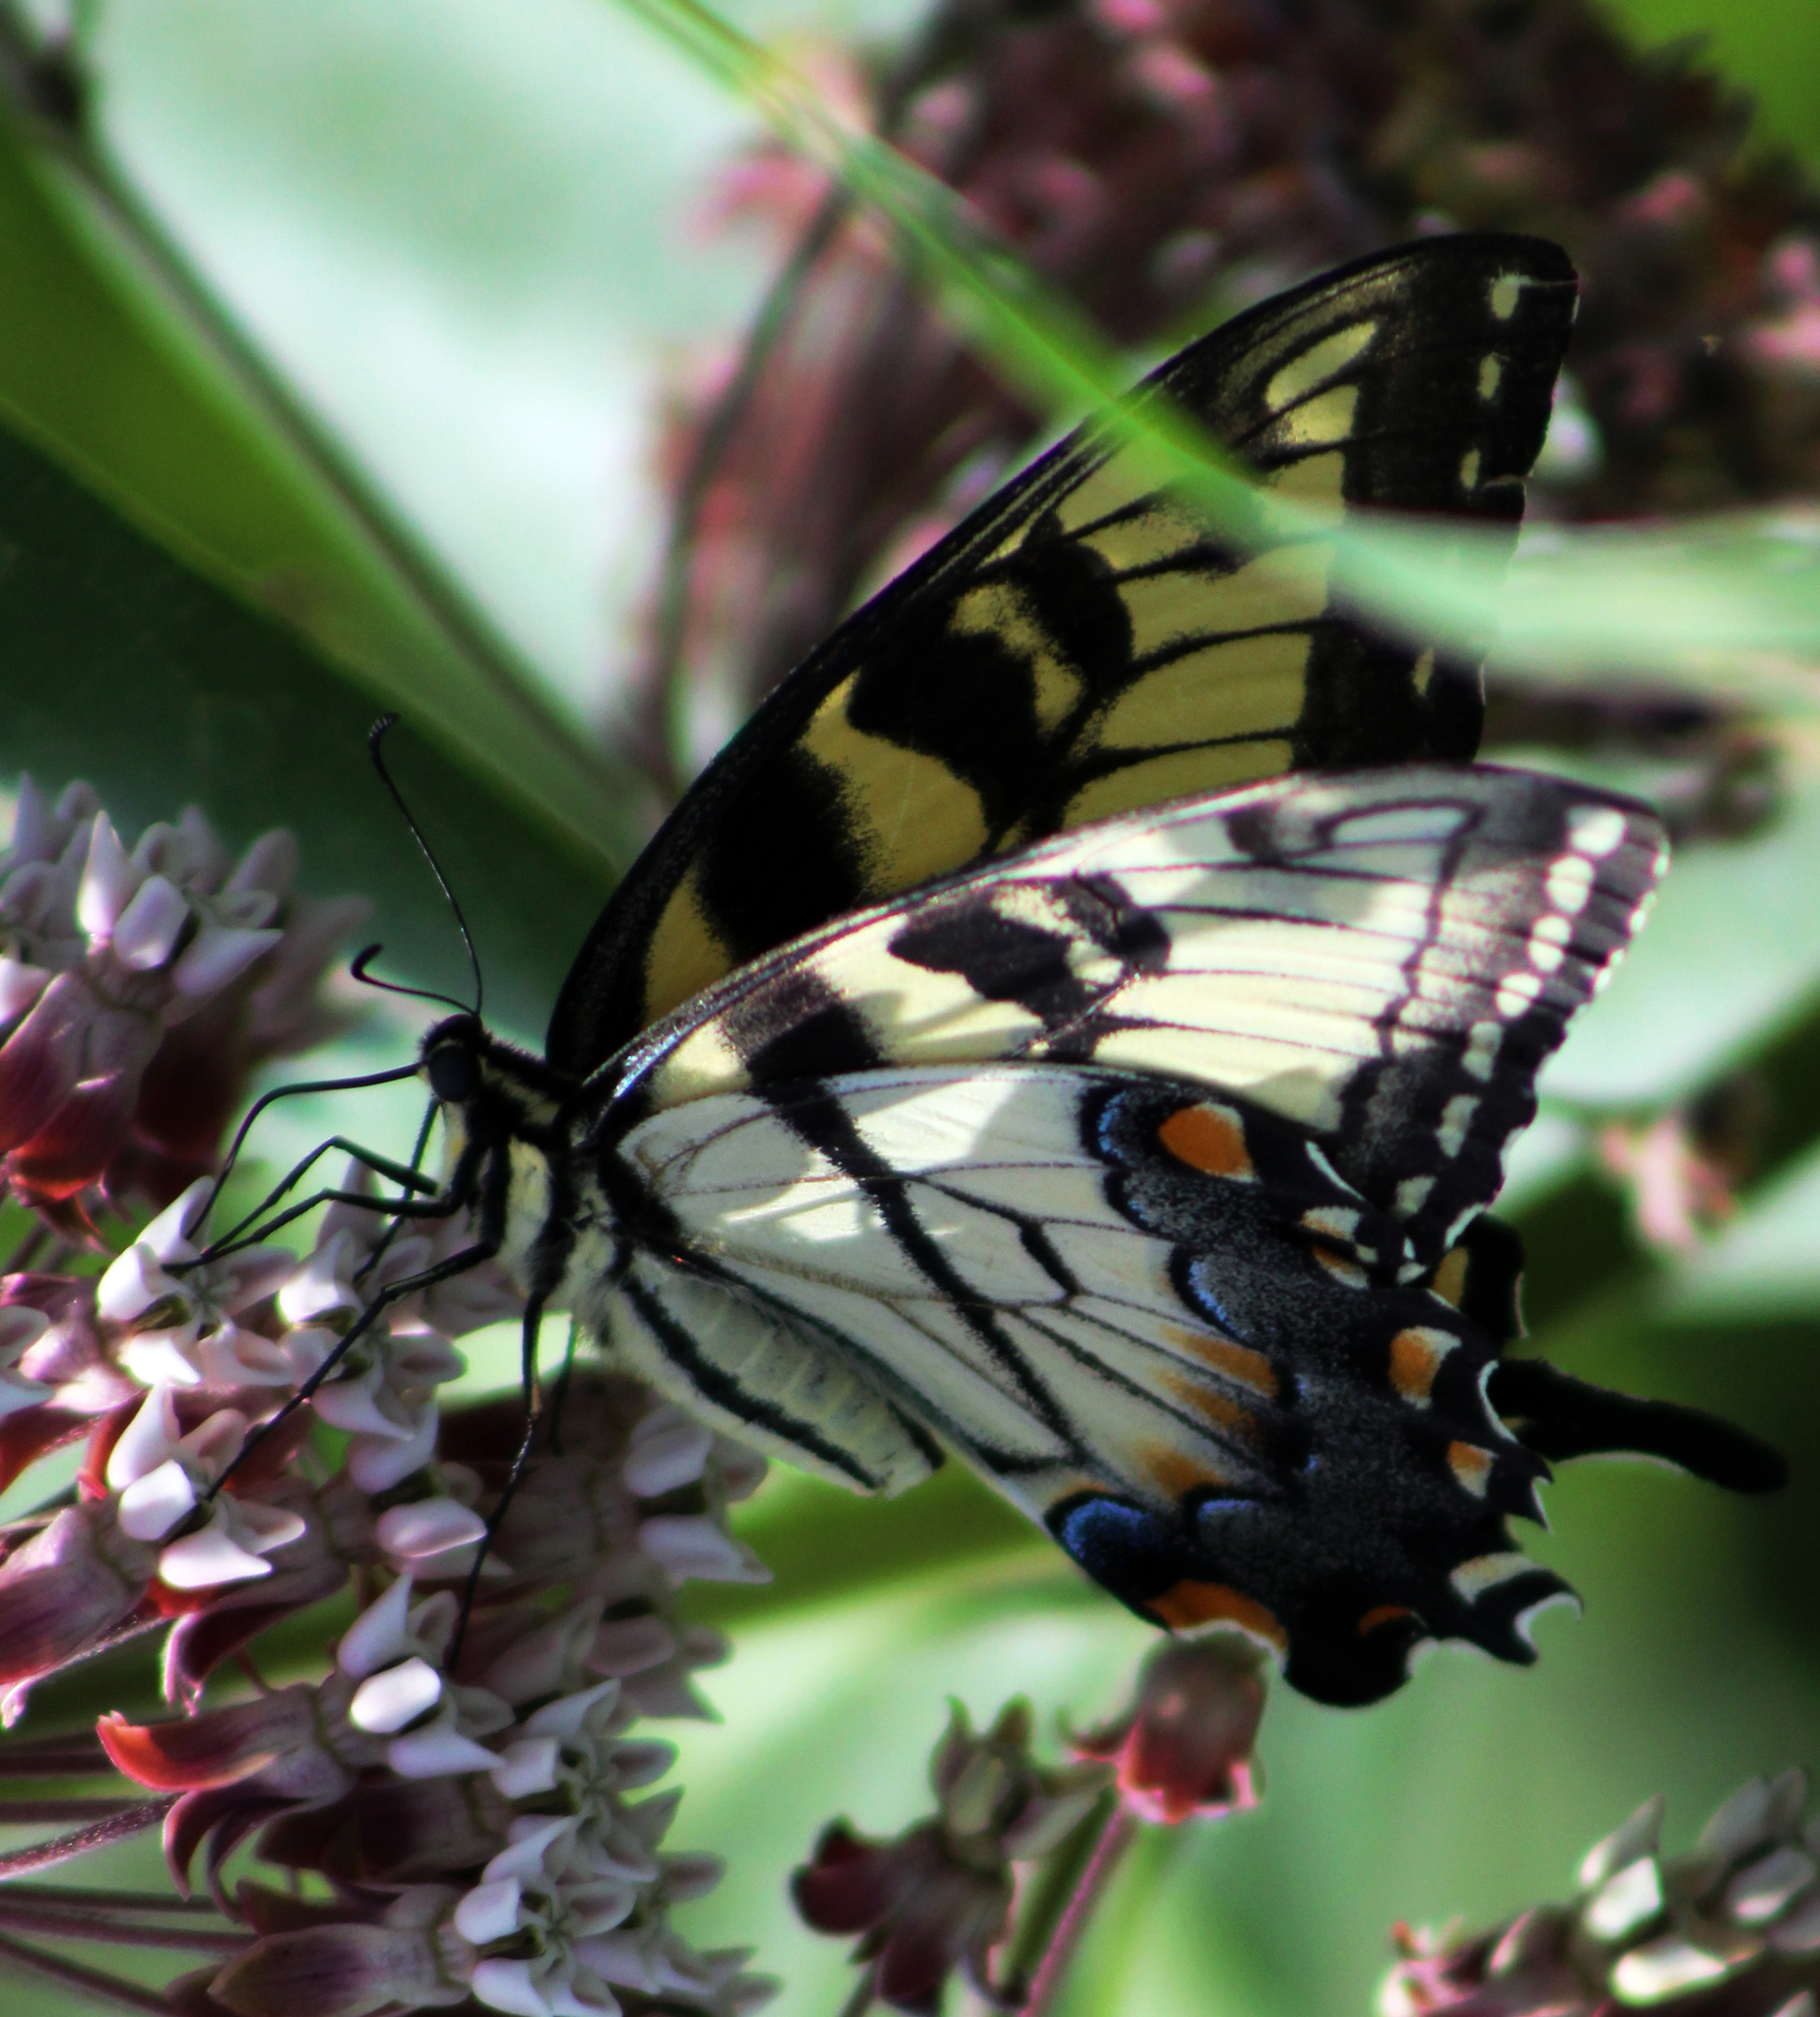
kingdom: Animalia
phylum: Arthropoda
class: Insecta
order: Lepidoptera
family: Papilionidae
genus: Papilio
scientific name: Papilio glaucus
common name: Tiger swallowtail
